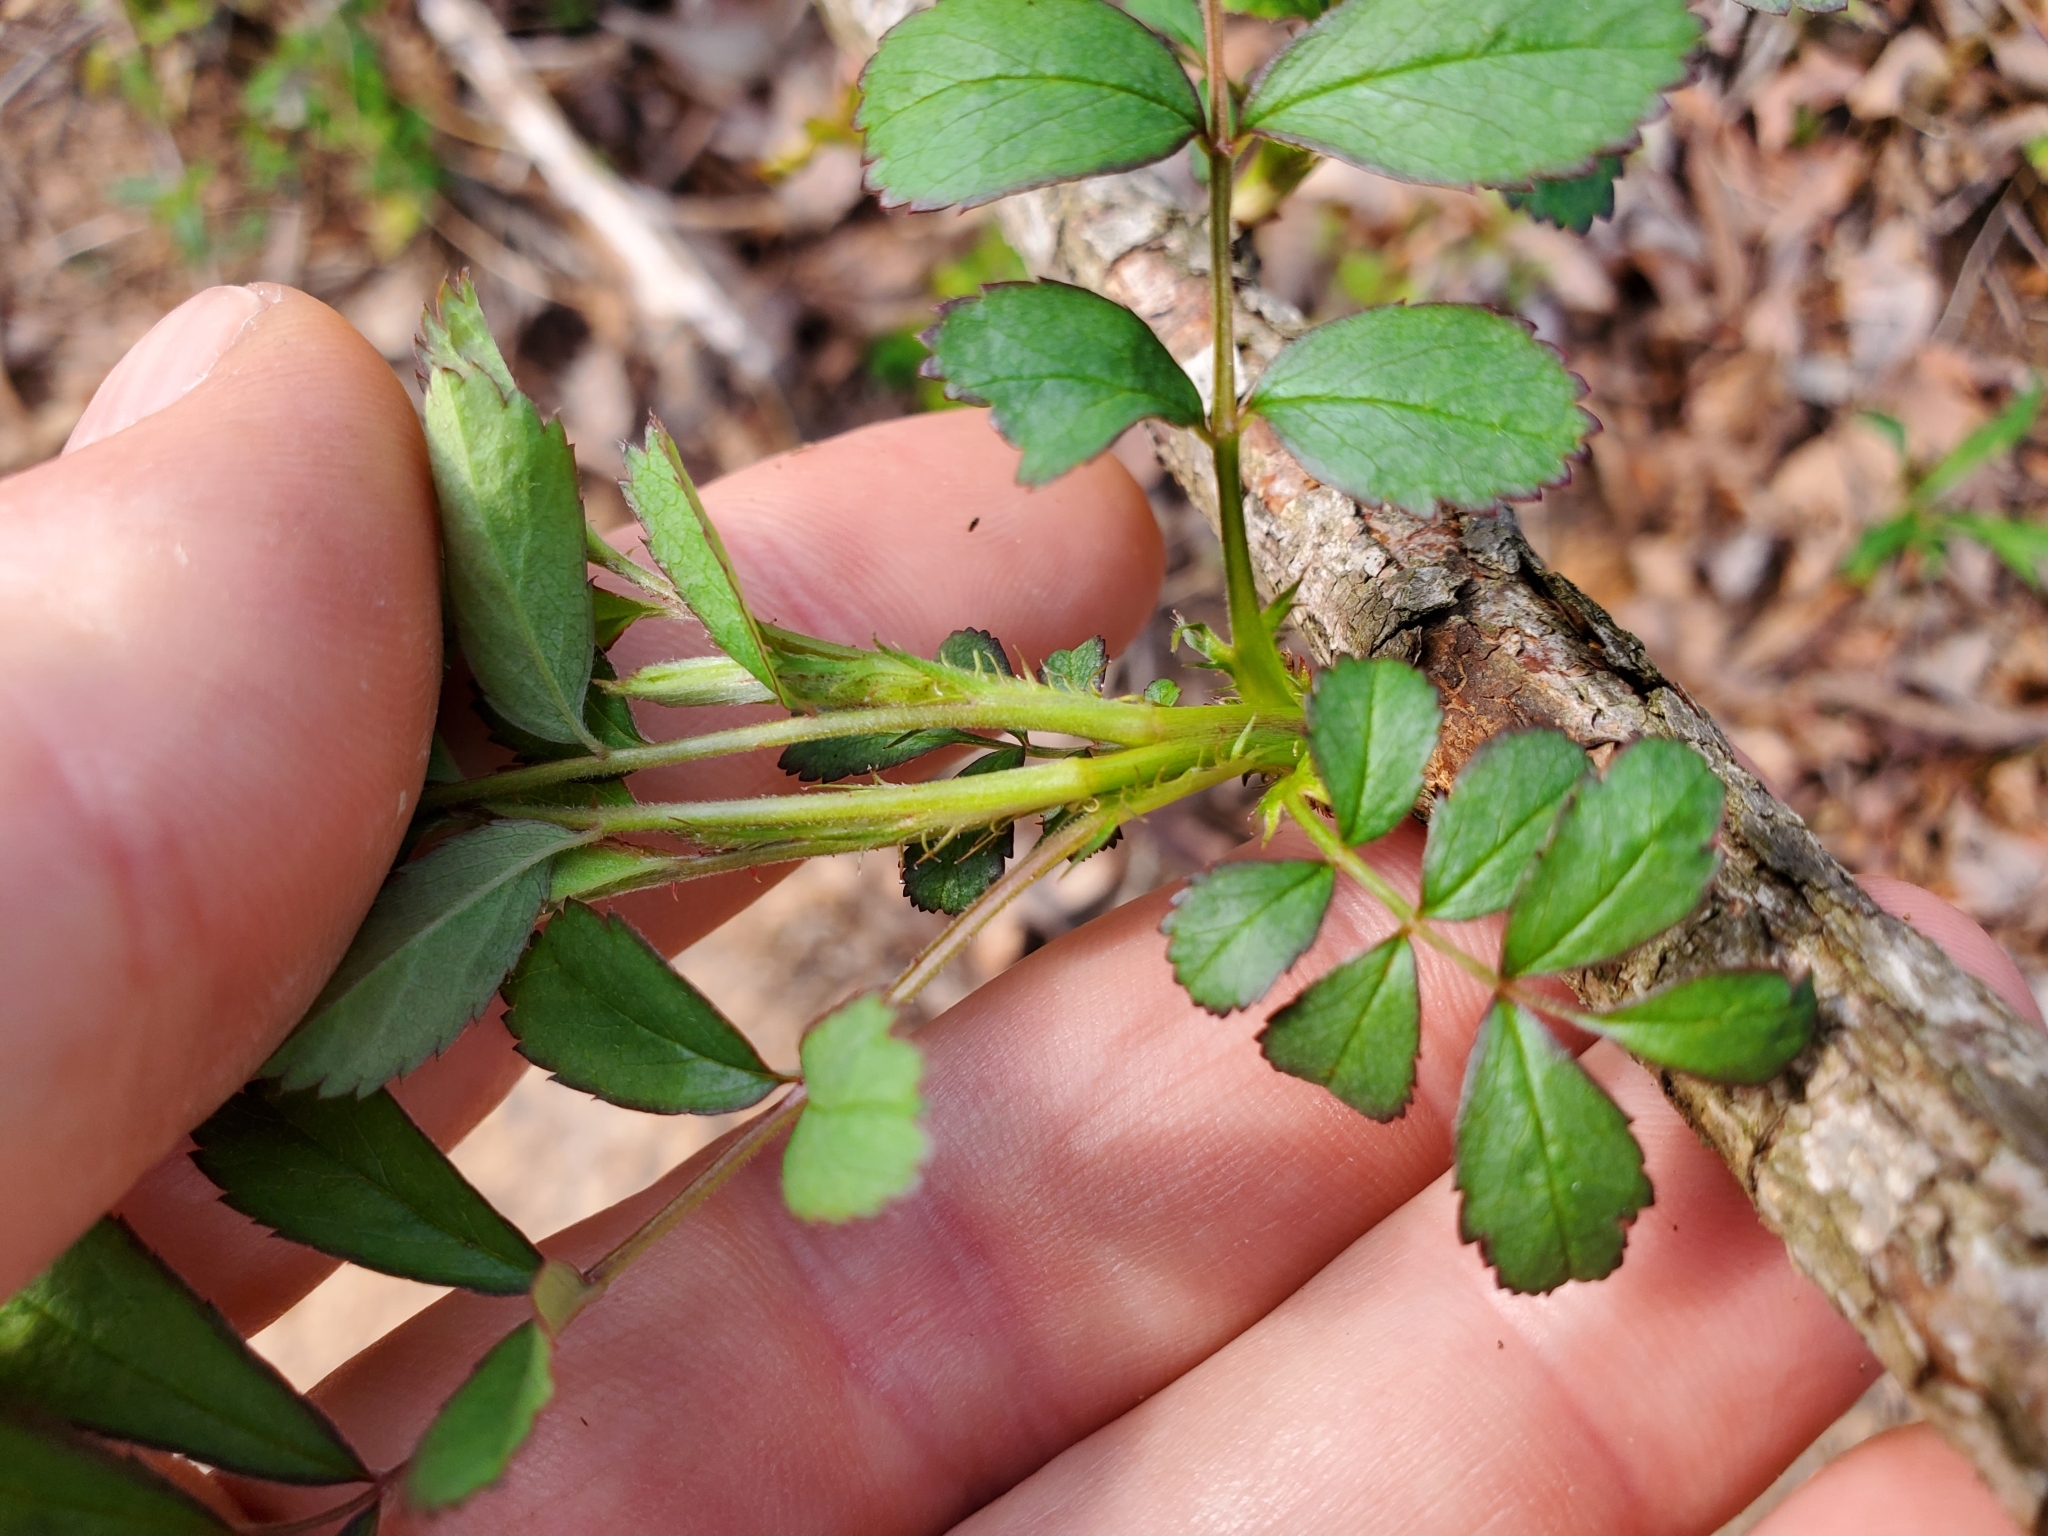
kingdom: Plantae
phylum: Tracheophyta
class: Magnoliopsida
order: Rosales
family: Rosaceae
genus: Rosa
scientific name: Rosa multiflora
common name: Multiflora rose
